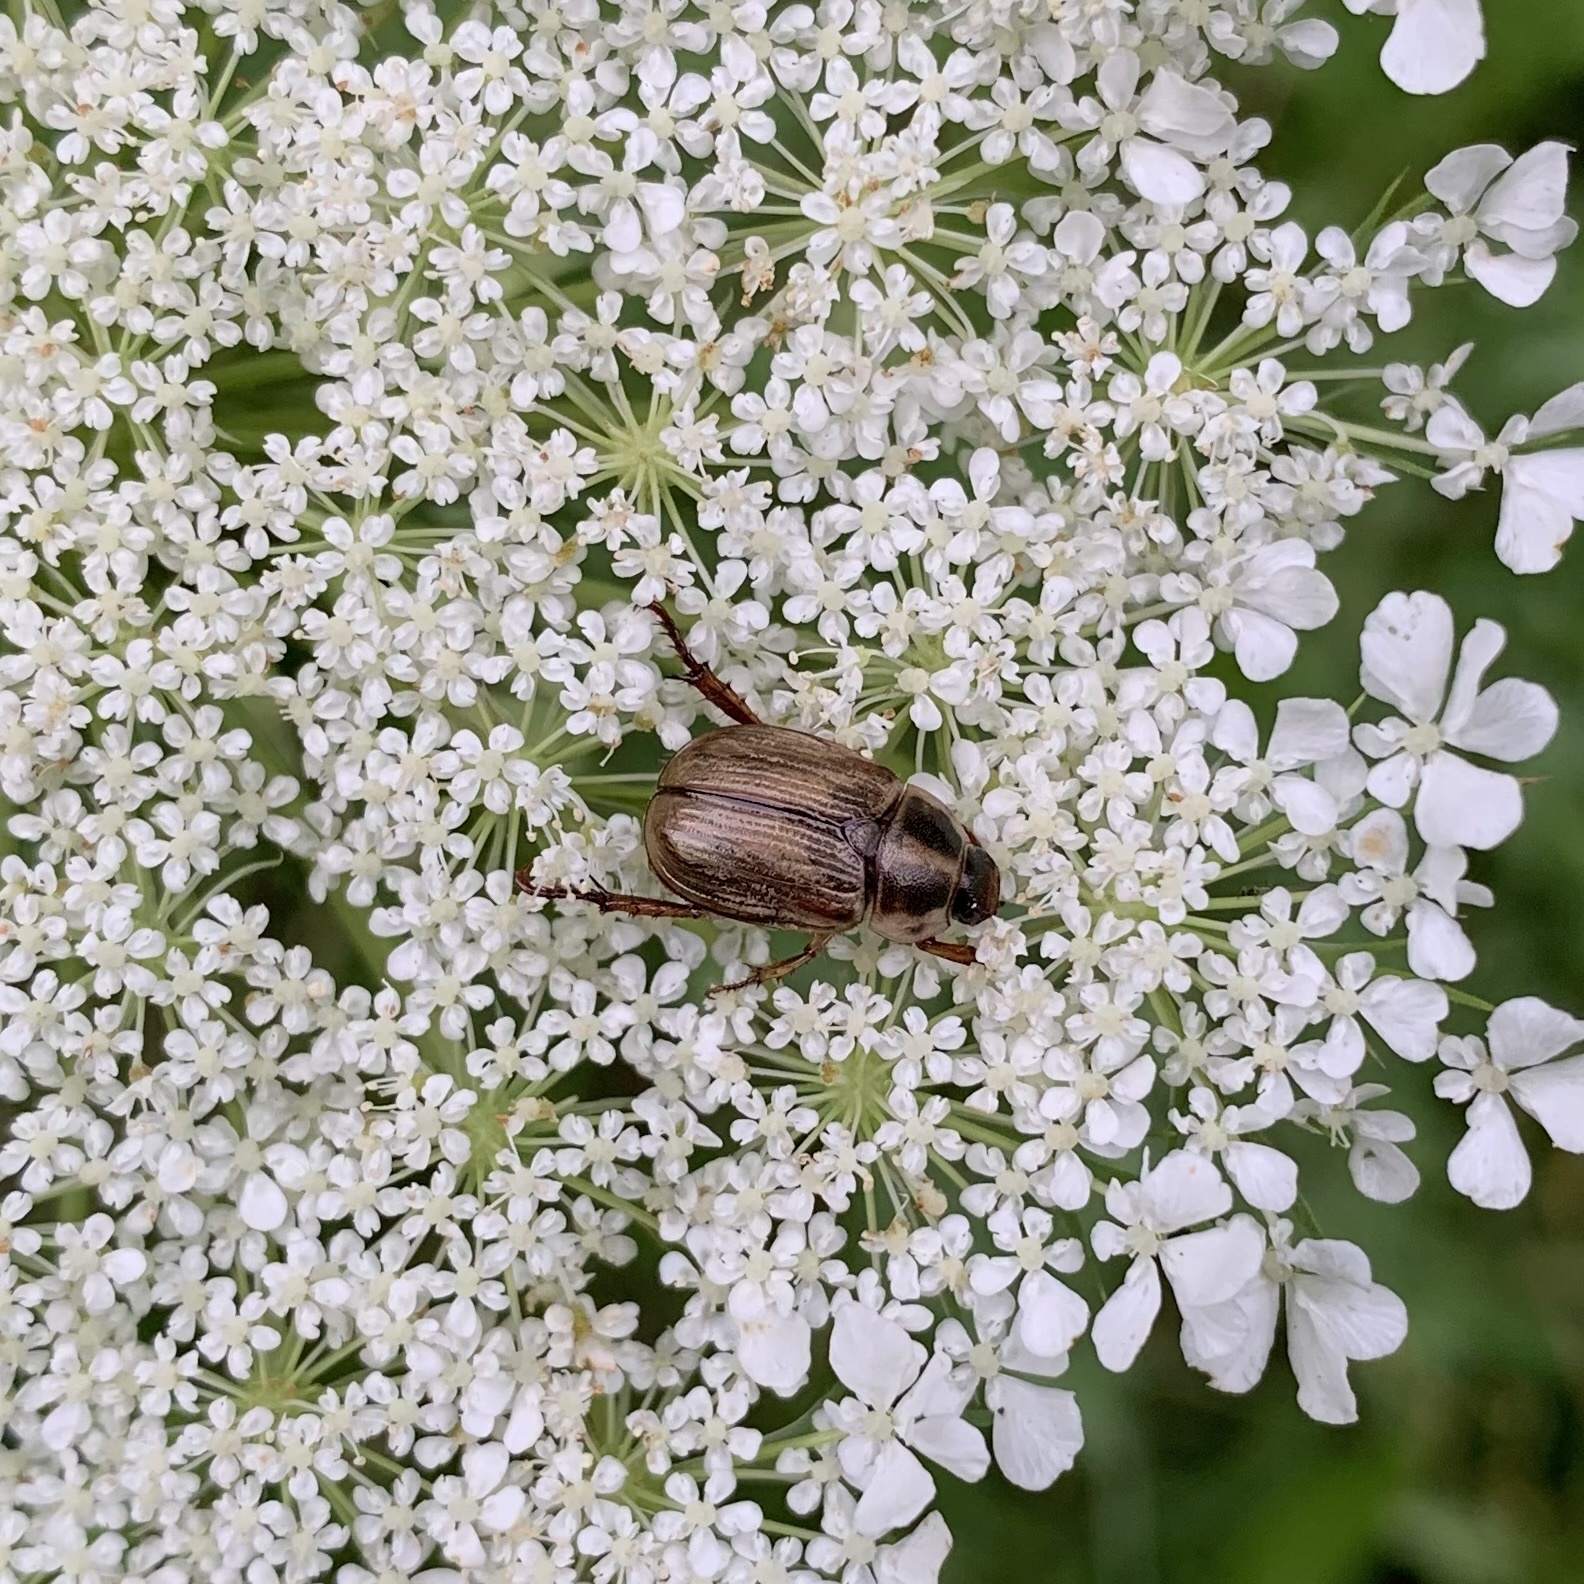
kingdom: Animalia
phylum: Arthropoda
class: Insecta
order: Coleoptera
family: Scarabaeidae
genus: Exomala
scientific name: Exomala orientalis
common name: Oriental beetle
